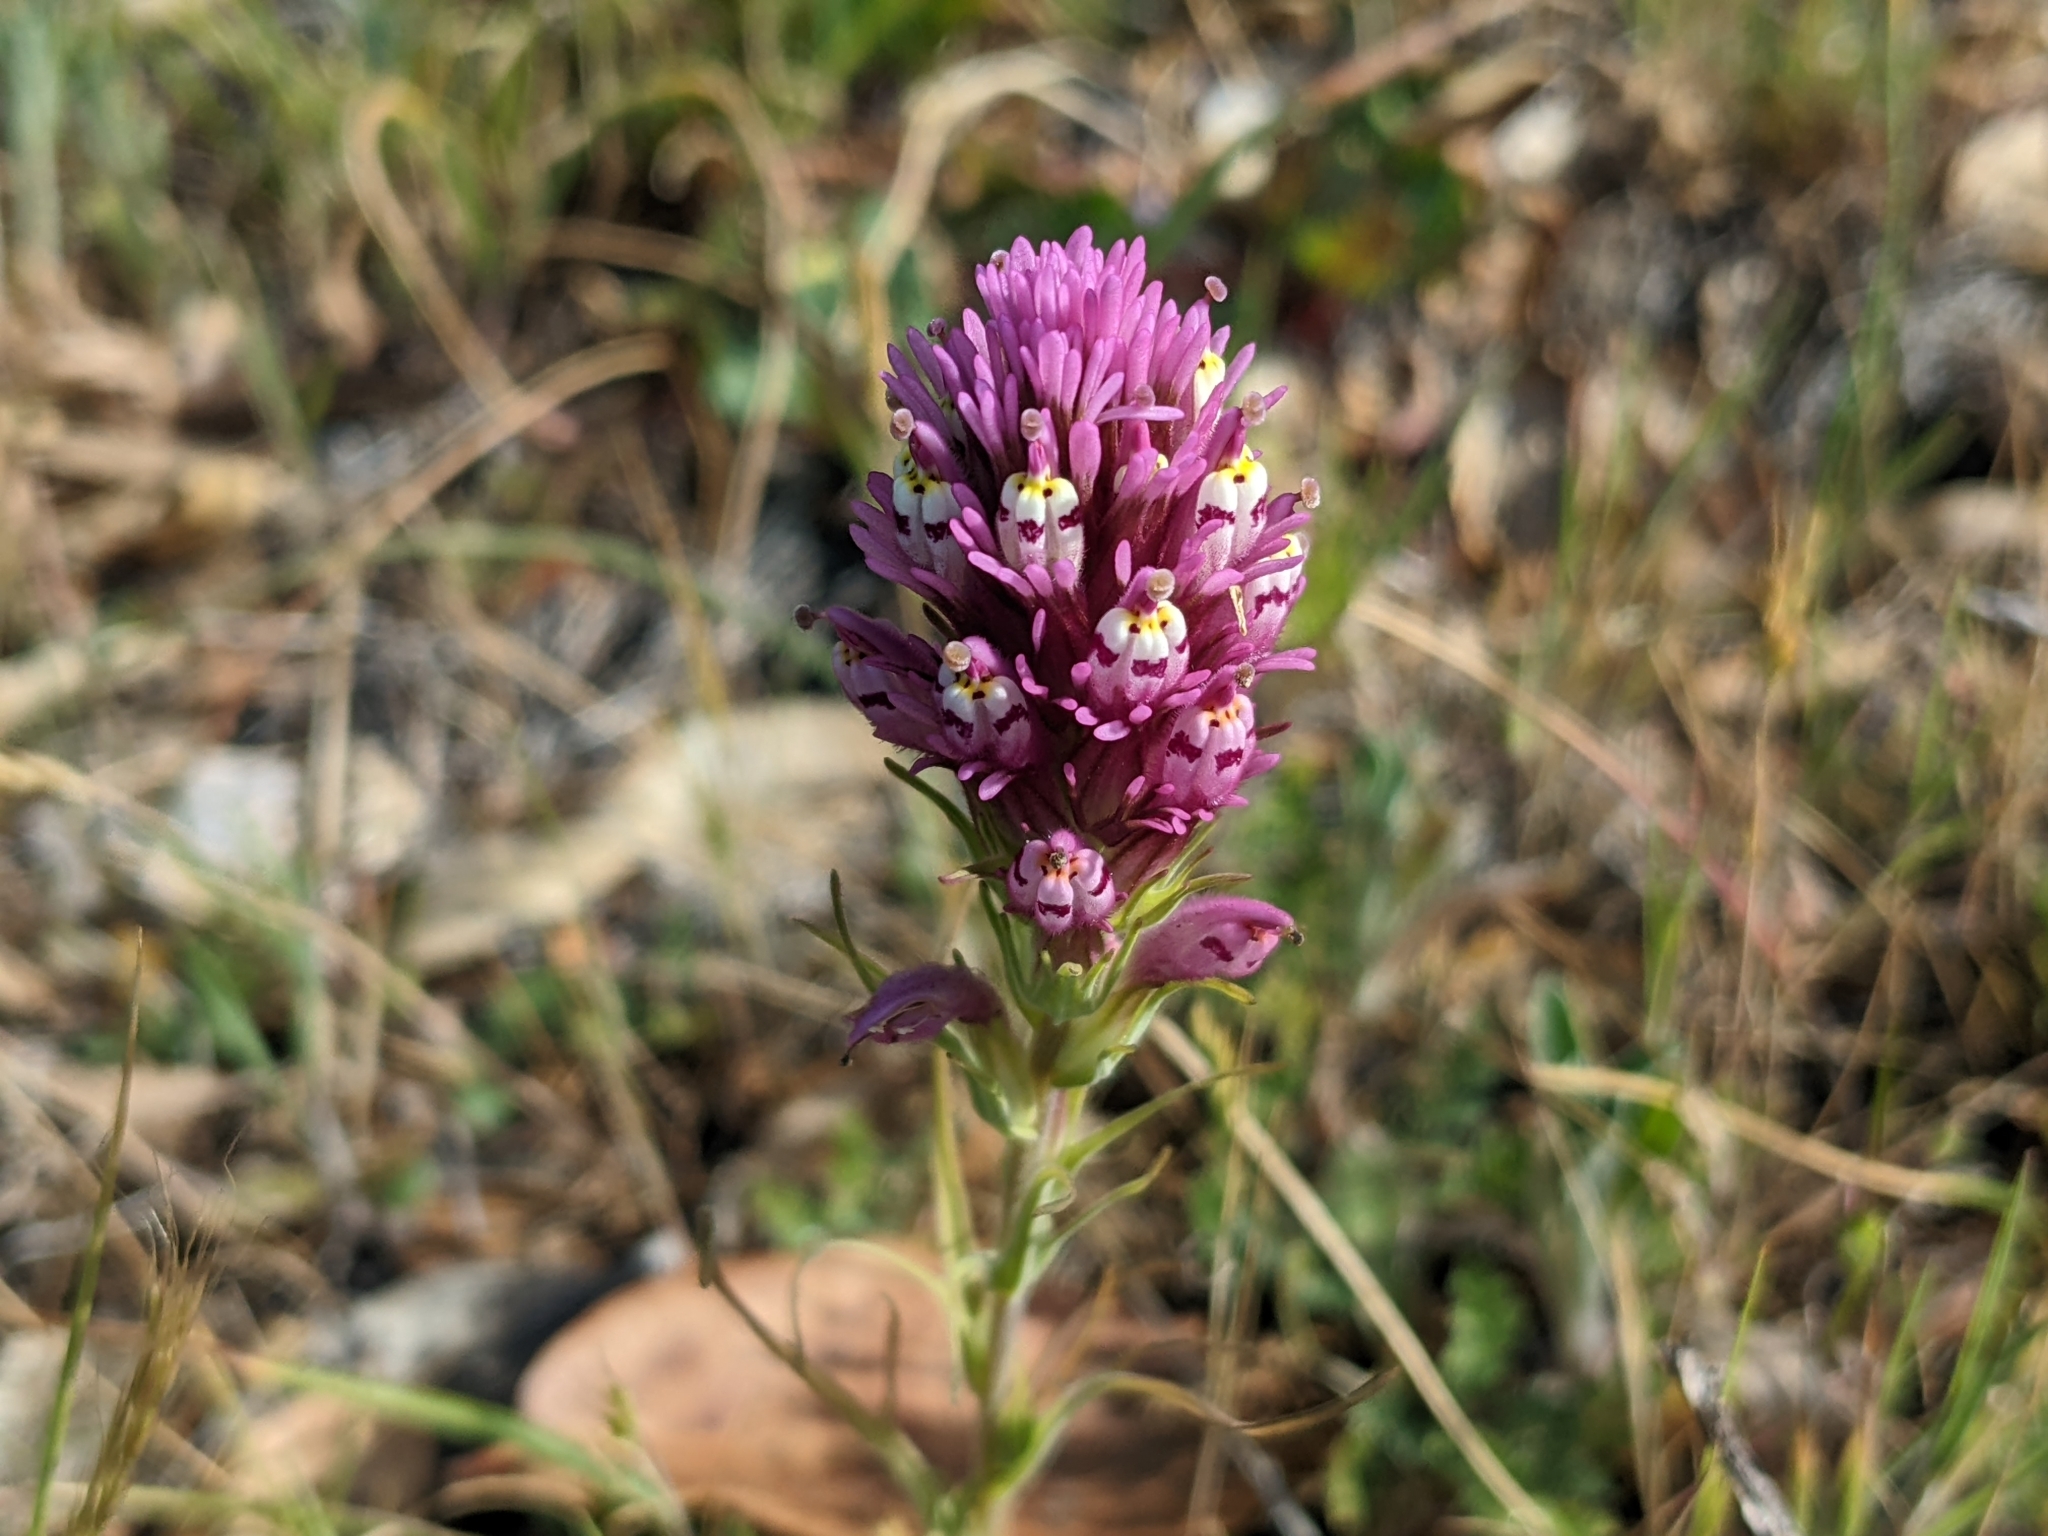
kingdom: Plantae
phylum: Tracheophyta
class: Magnoliopsida
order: Lamiales
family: Orobanchaceae
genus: Castilleja
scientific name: Castilleja densiflora
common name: Dense-flower indian paintbrush
